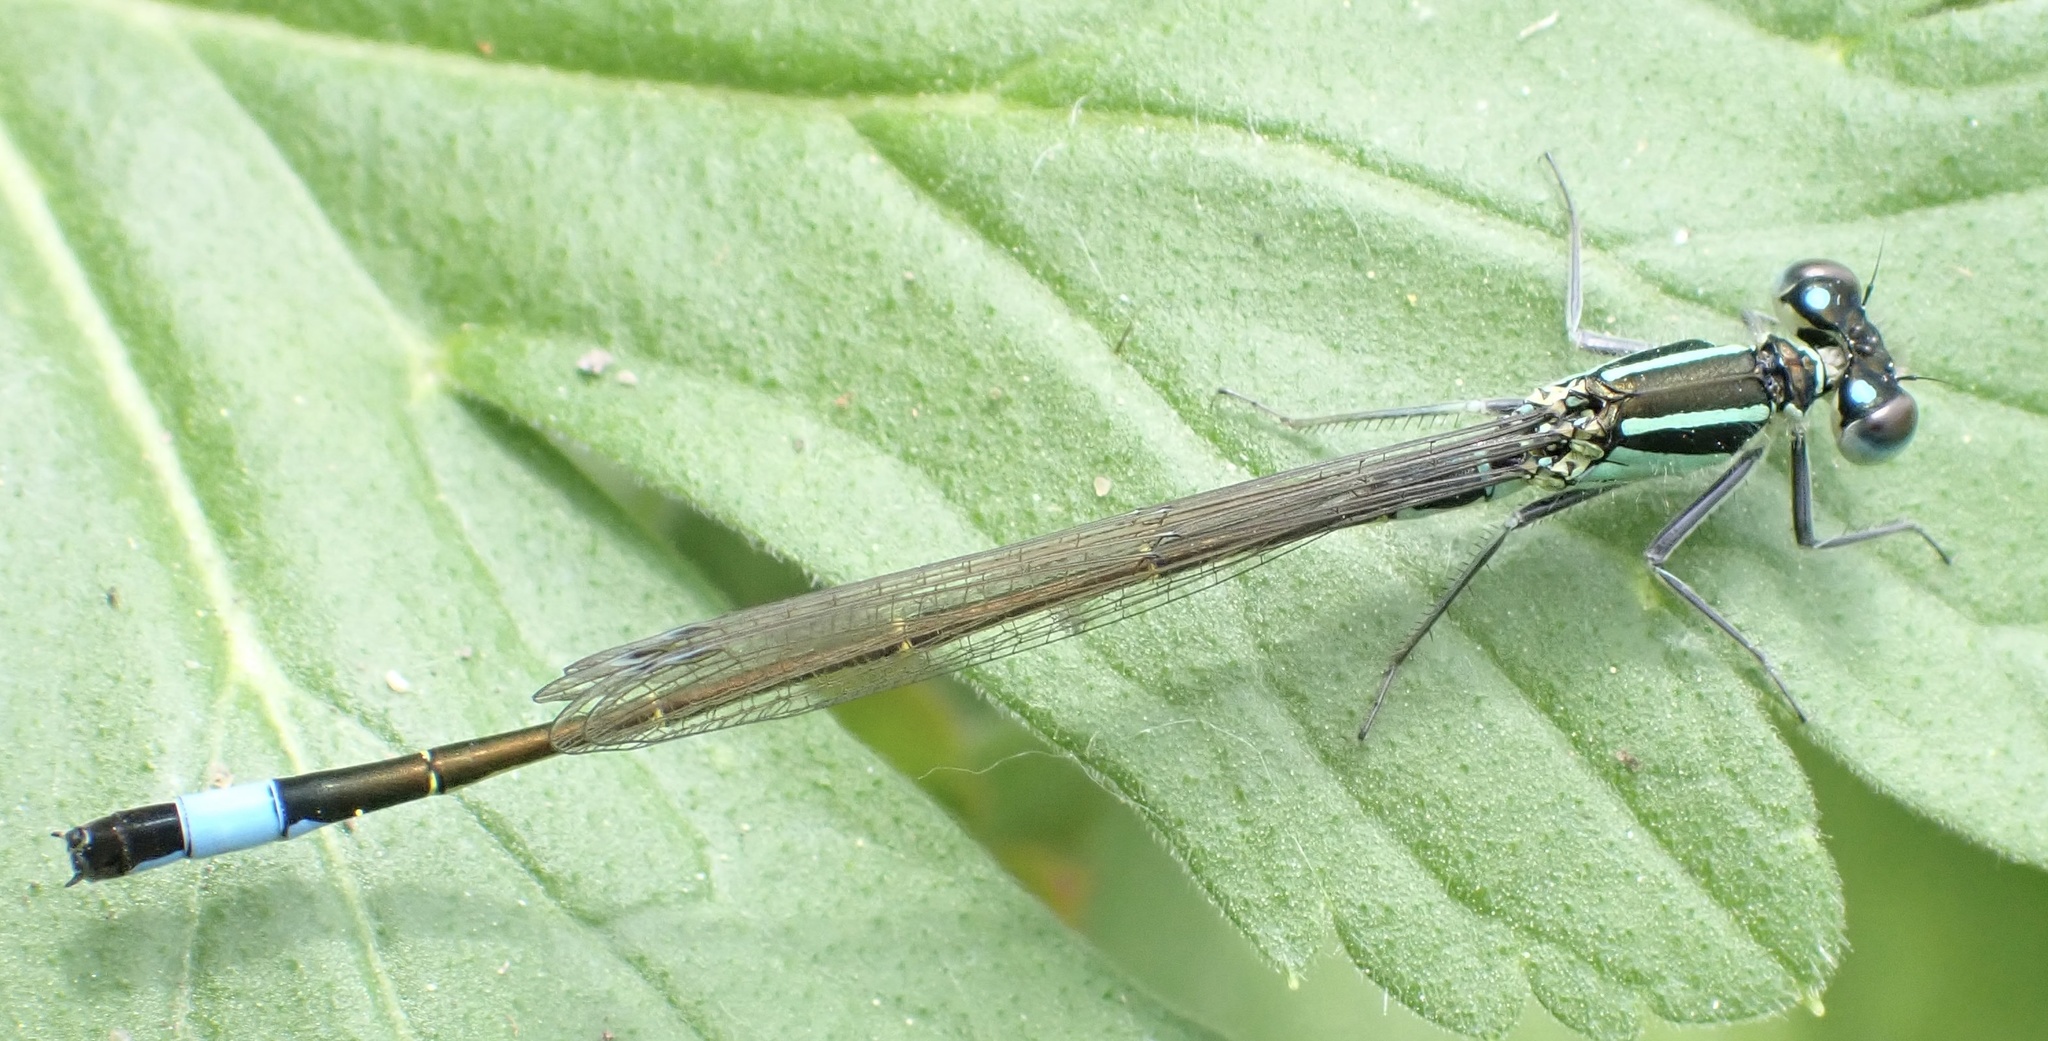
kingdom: Animalia
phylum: Arthropoda
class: Insecta
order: Odonata
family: Coenagrionidae
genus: Ischnura
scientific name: Ischnura elegans
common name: Blue-tailed damselfly
